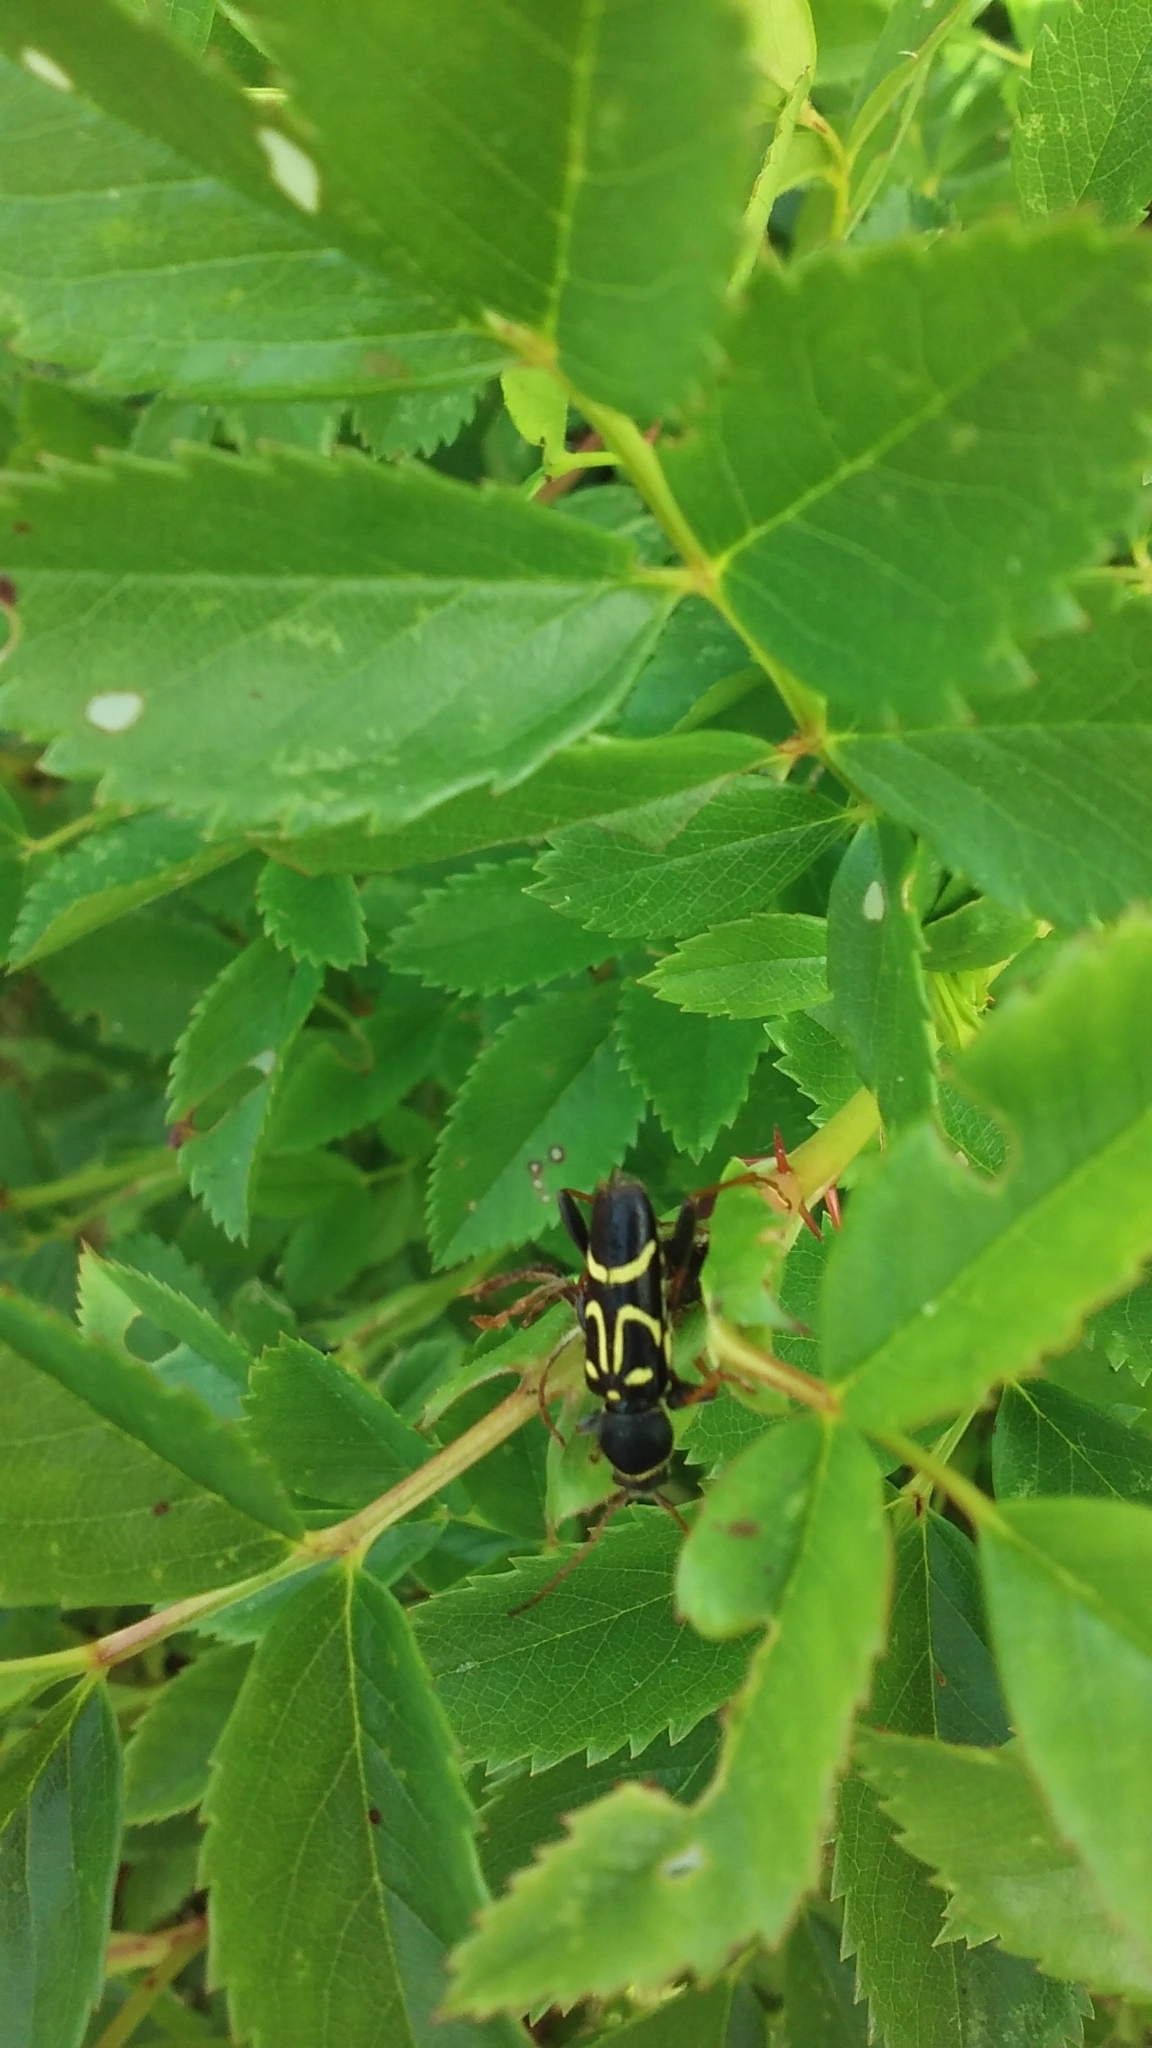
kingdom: Animalia
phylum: Arthropoda
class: Insecta
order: Coleoptera
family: Cerambycidae
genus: Clytus
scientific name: Clytus ruricola
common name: Round-necked longhorn beetle
